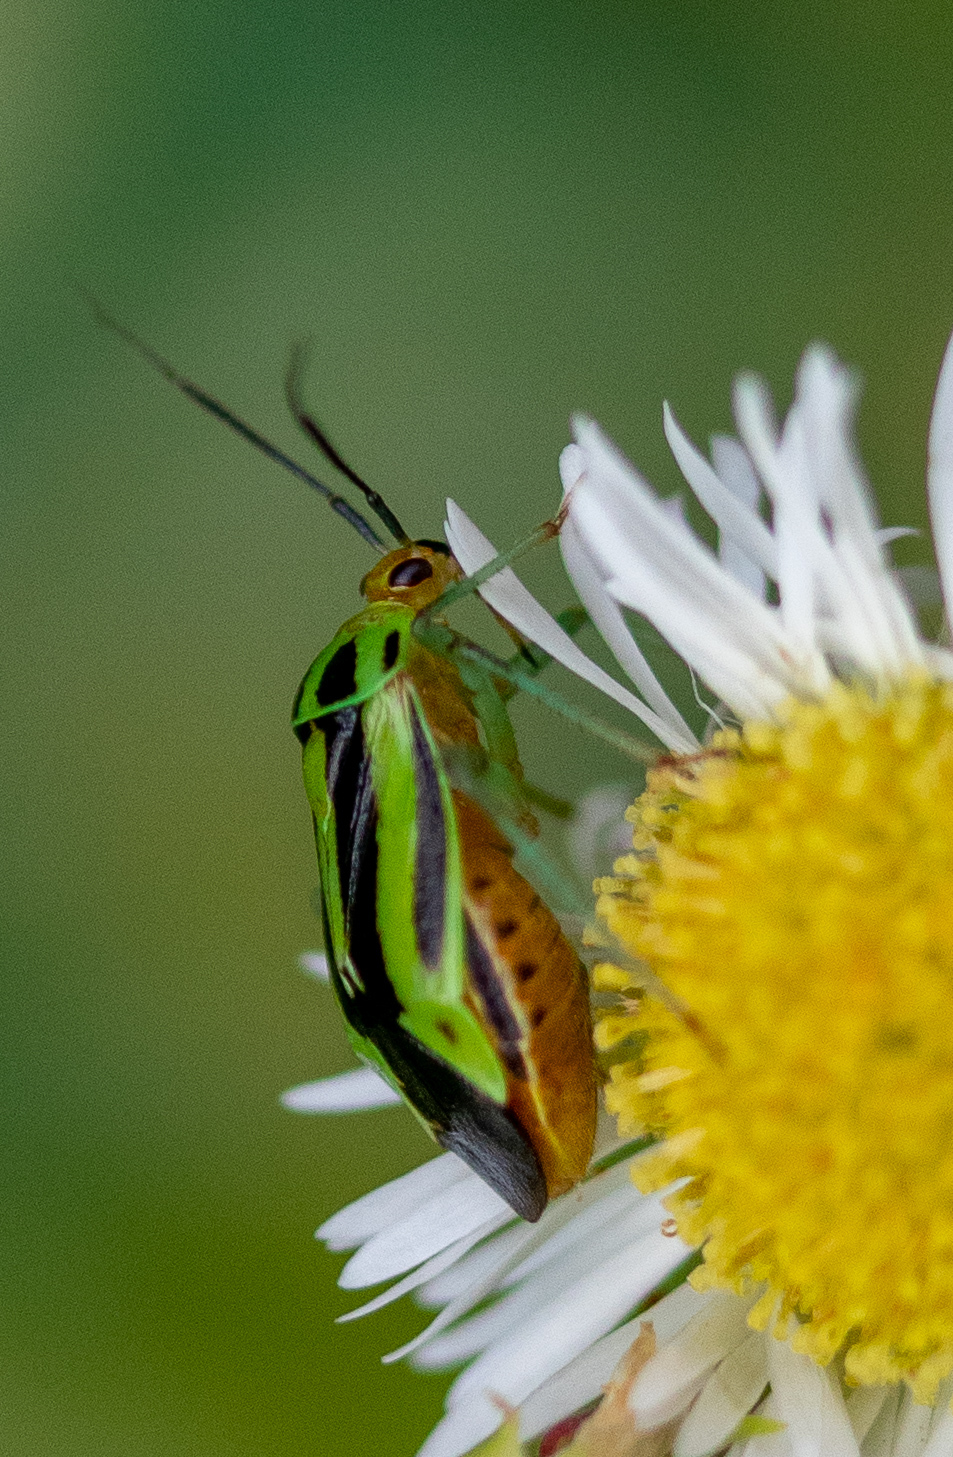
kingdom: Animalia
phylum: Arthropoda
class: Insecta
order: Hemiptera
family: Miridae
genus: Poecilocapsus
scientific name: Poecilocapsus lineatus
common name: Four-lined plant bug
